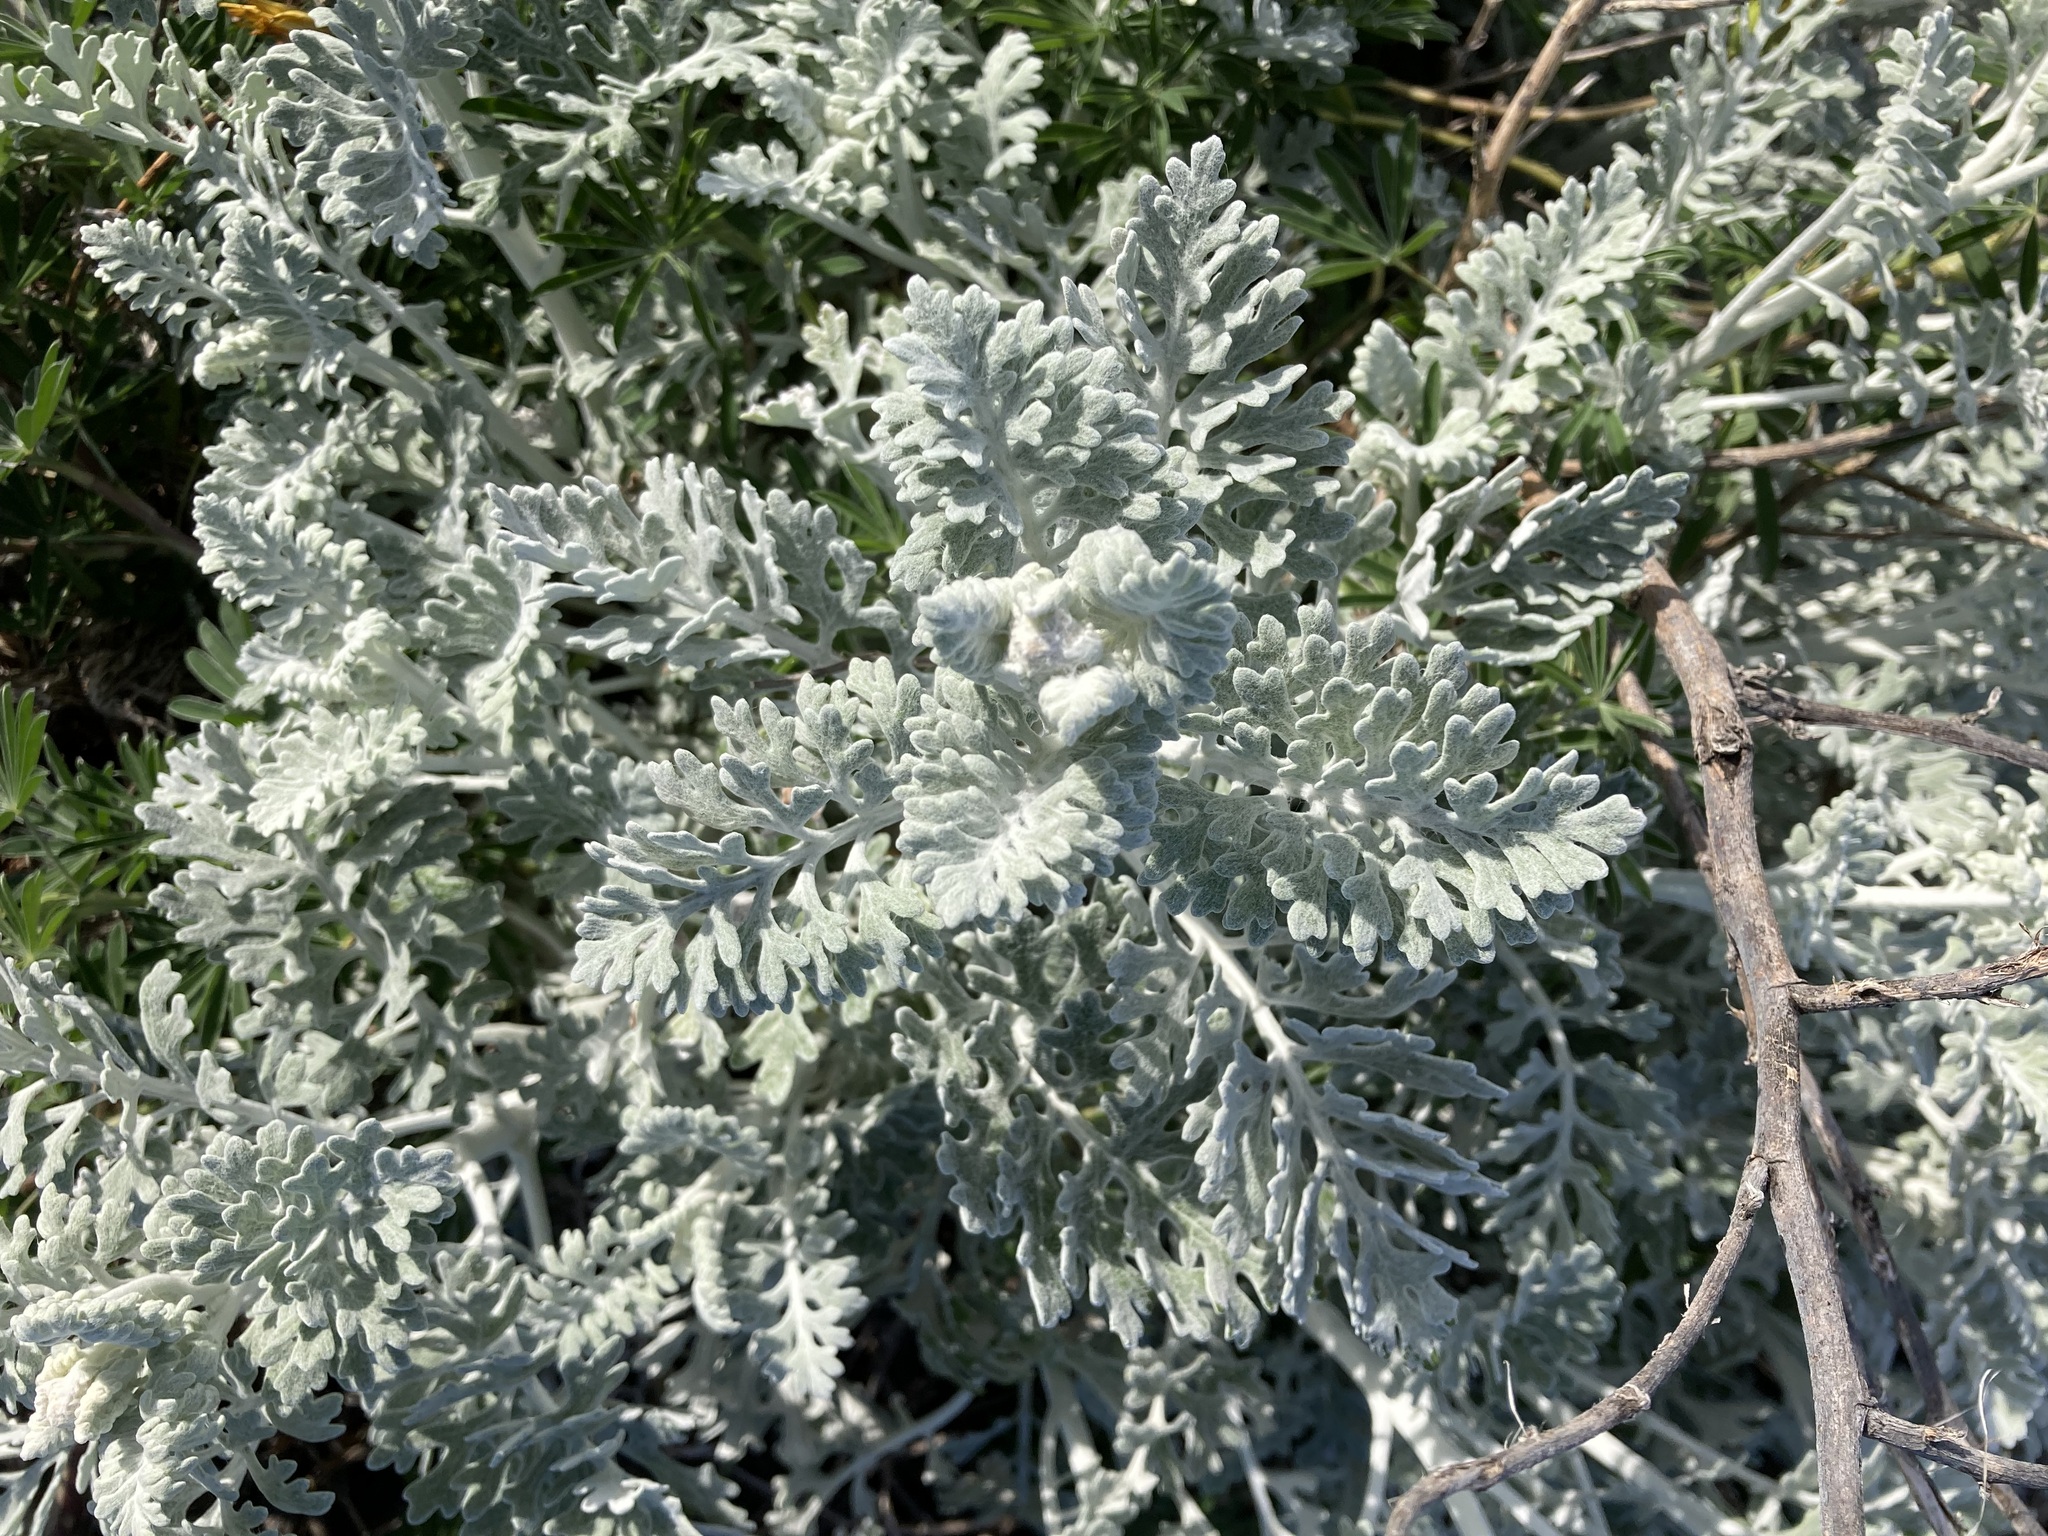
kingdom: Plantae
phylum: Tracheophyta
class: Magnoliopsida
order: Asterales
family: Asteraceae
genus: Jacobaea
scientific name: Jacobaea maritima
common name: Silver ragwort
